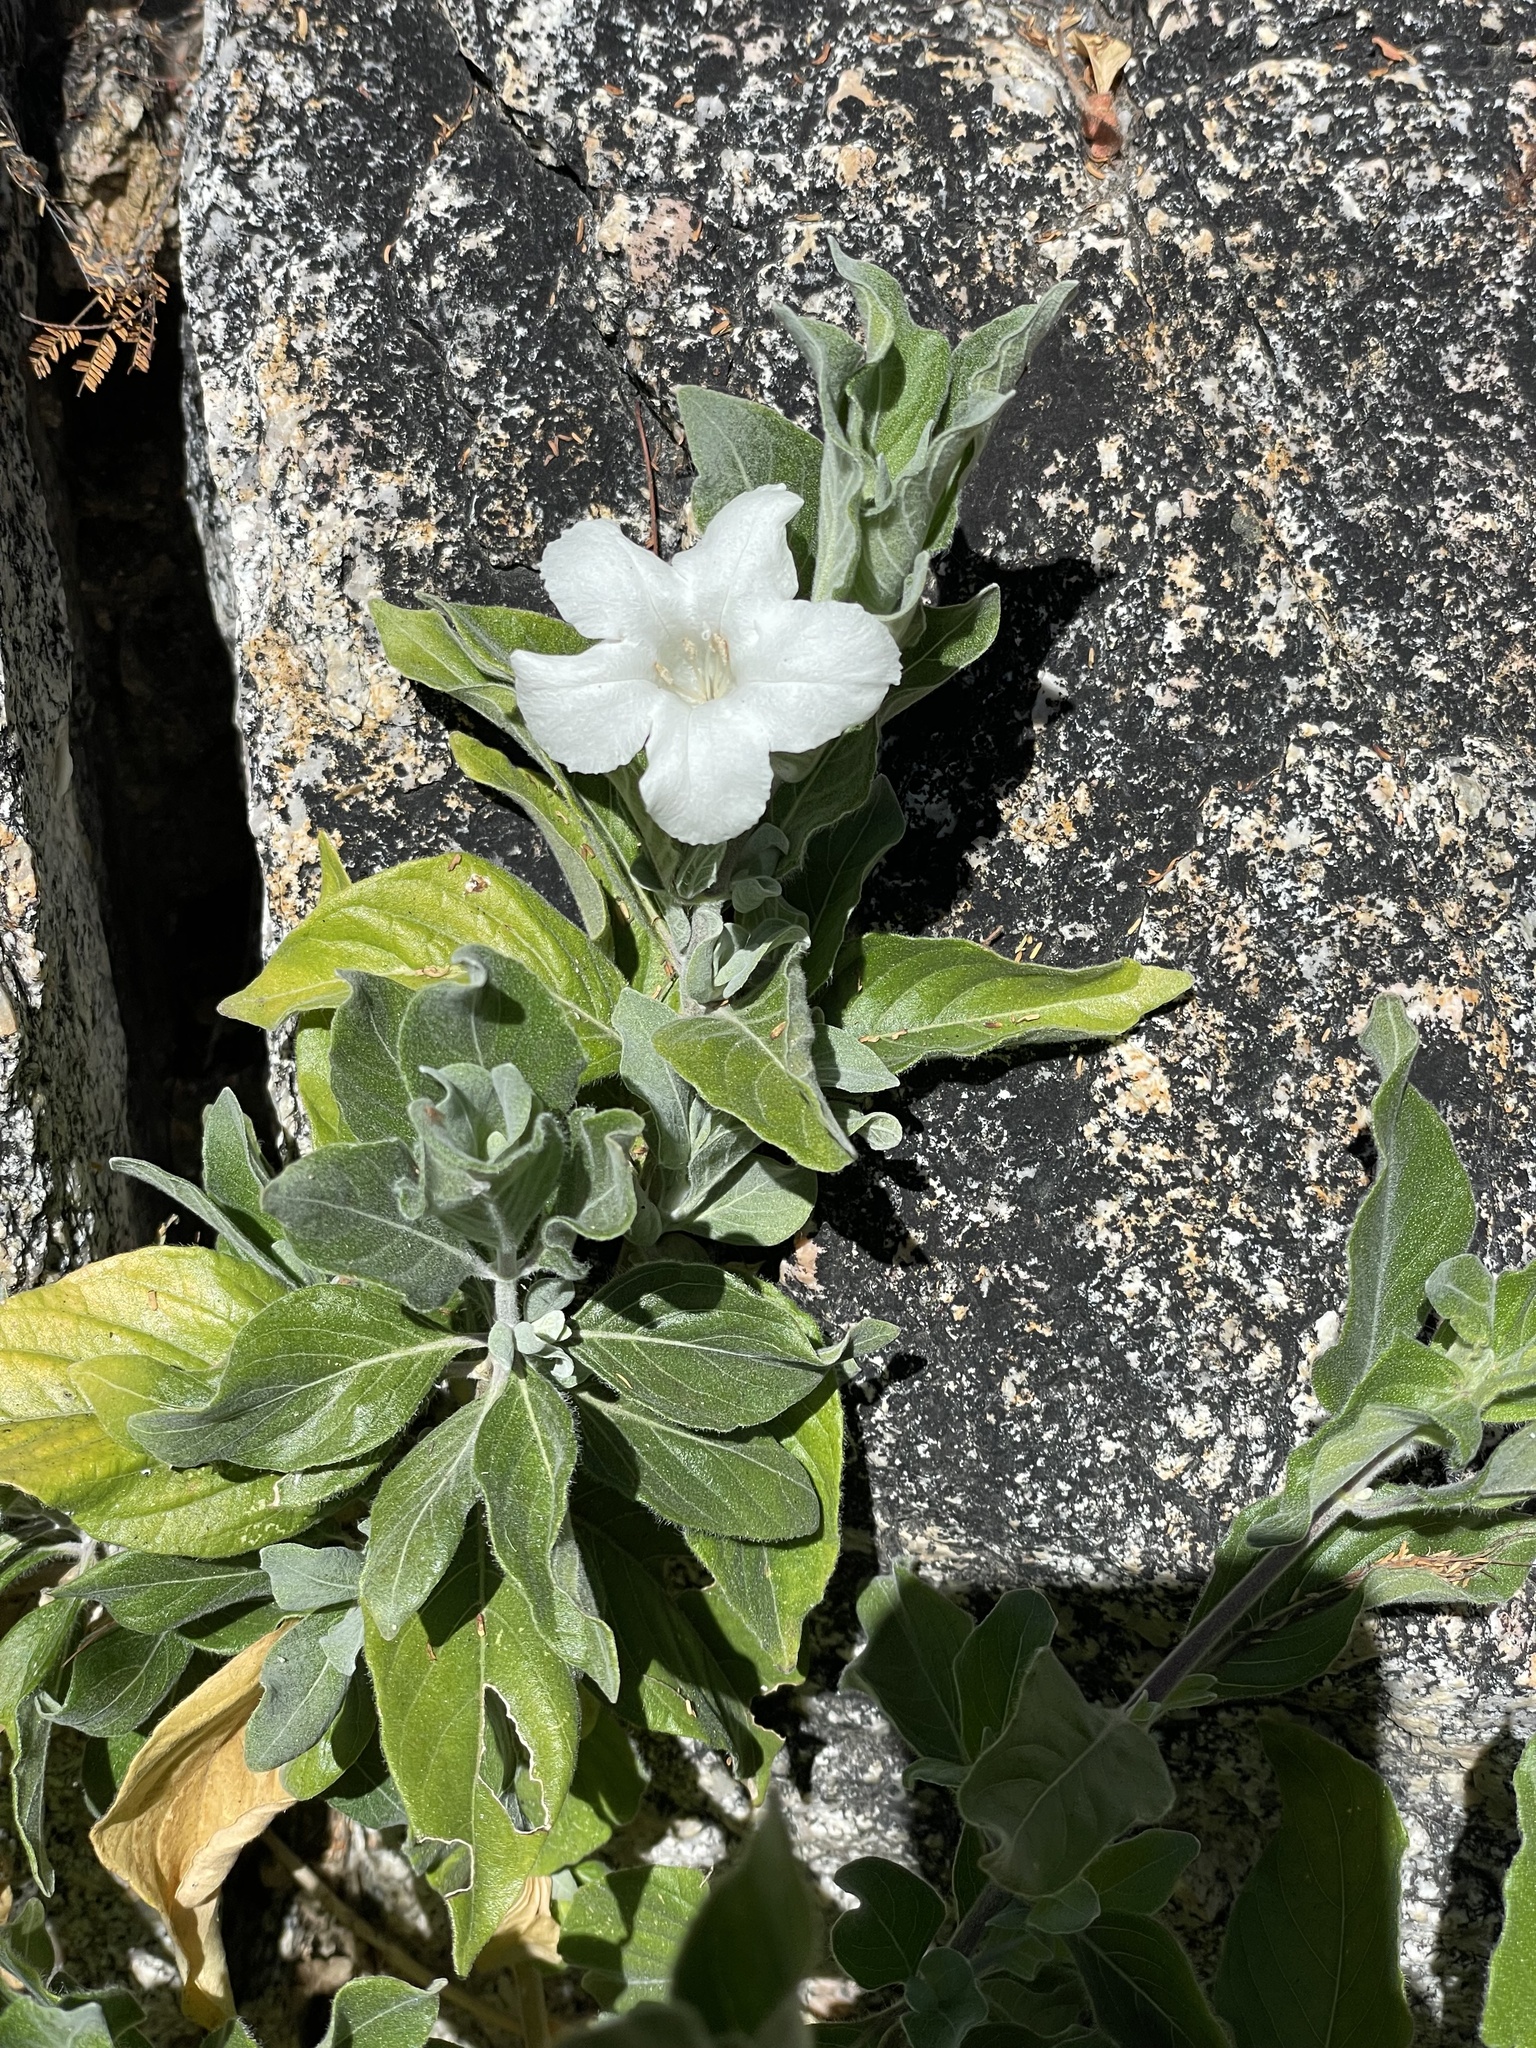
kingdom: Plantae
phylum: Tracheophyta
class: Magnoliopsida
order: Lamiales
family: Acanthaceae
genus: Ruellia
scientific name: Ruellia leucantha
